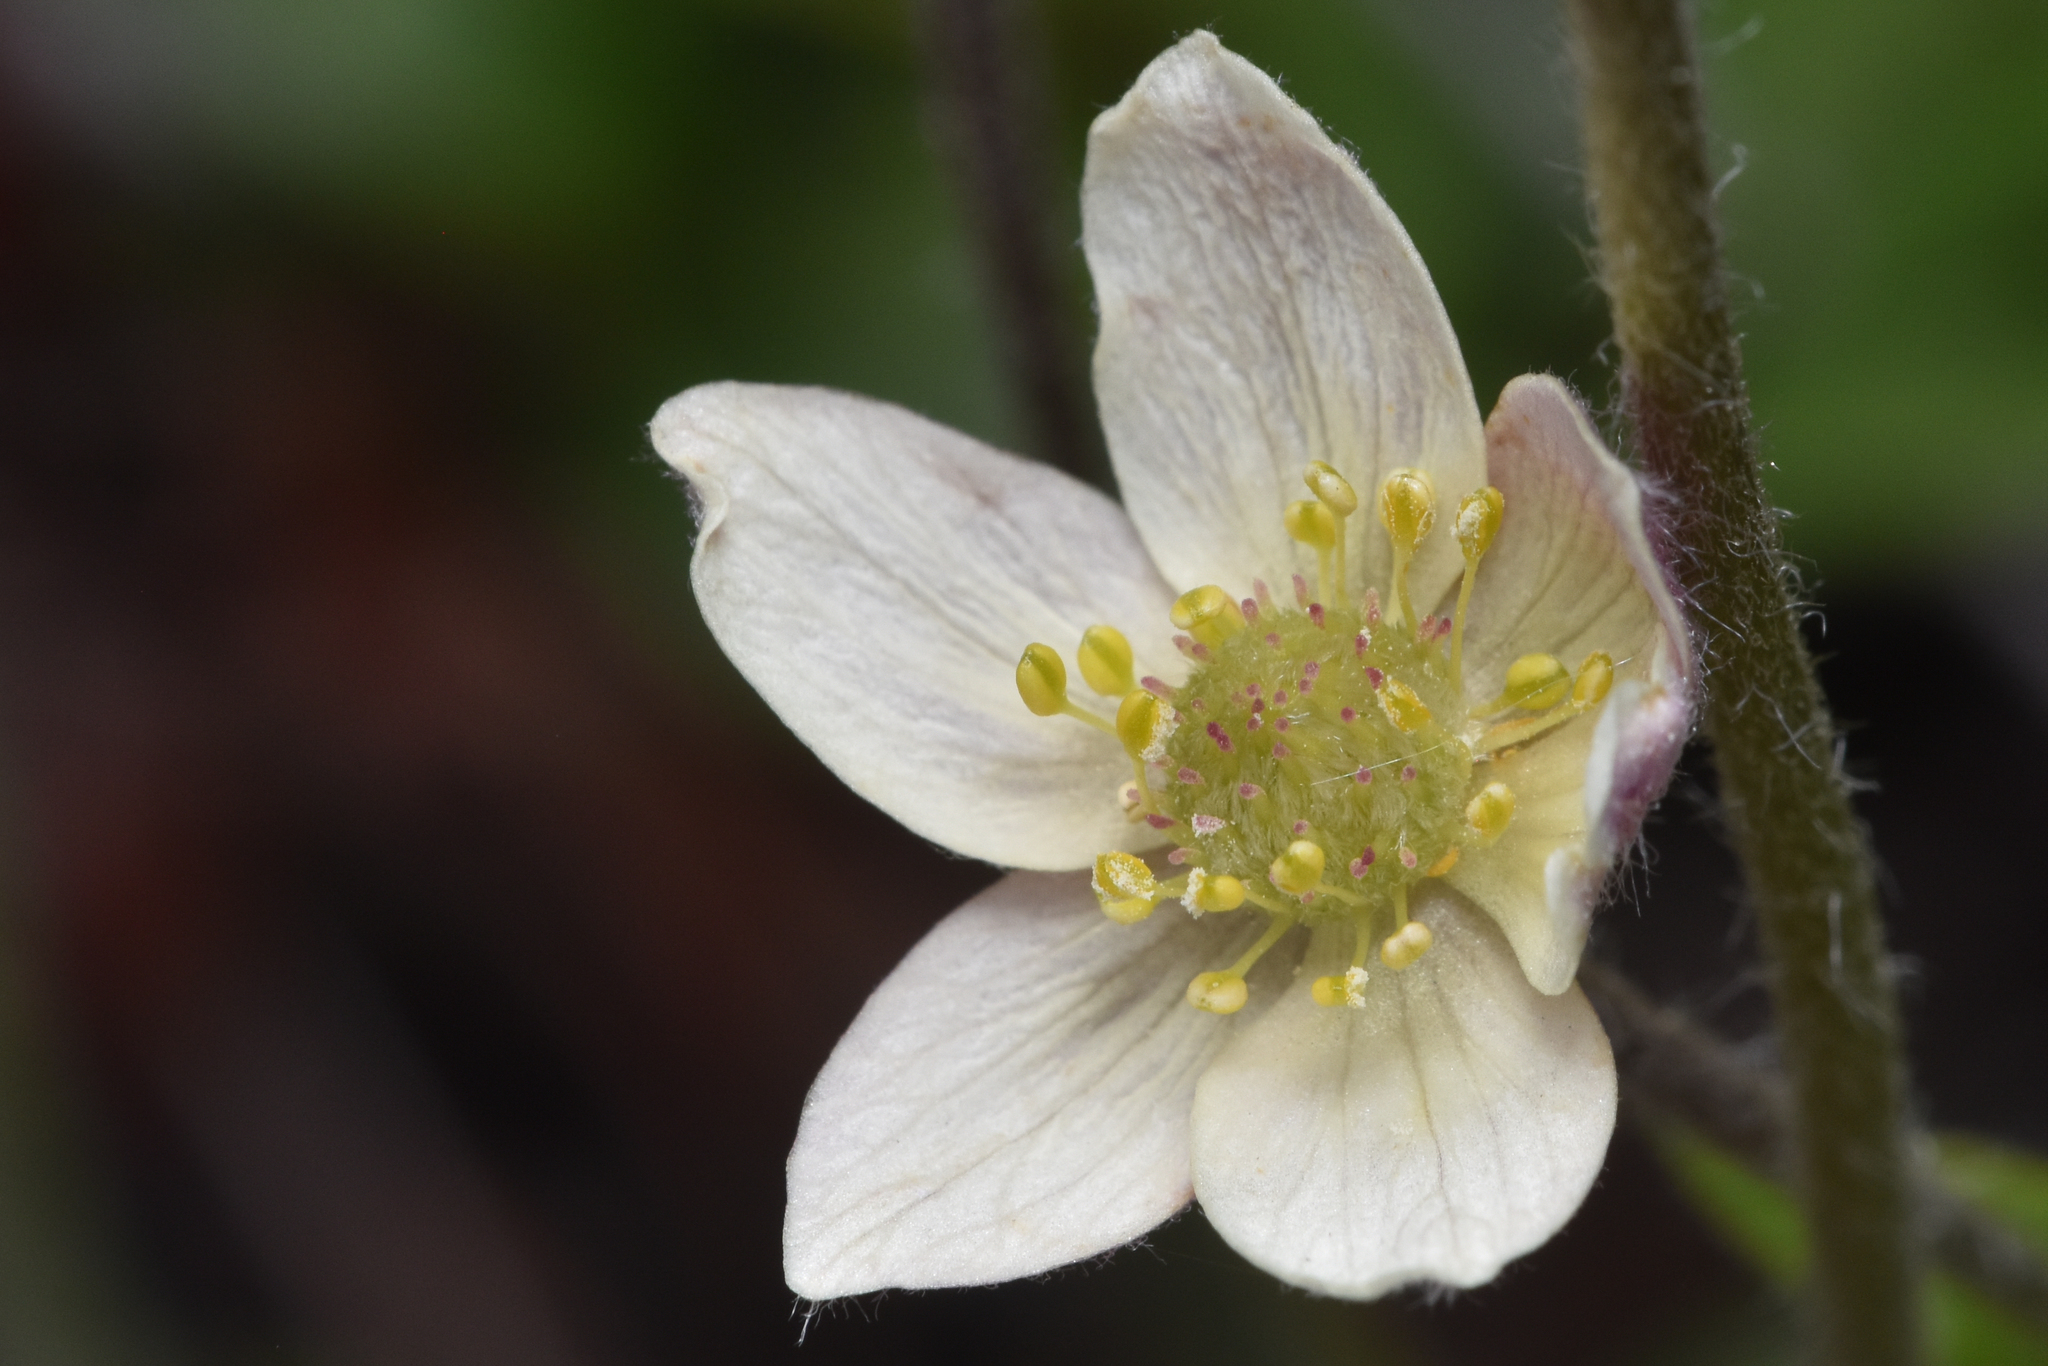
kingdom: Plantae
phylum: Tracheophyta
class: Magnoliopsida
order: Ranunculales
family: Ranunculaceae
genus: Anemone
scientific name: Anemone multifida
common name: Bird's-foot anemone
